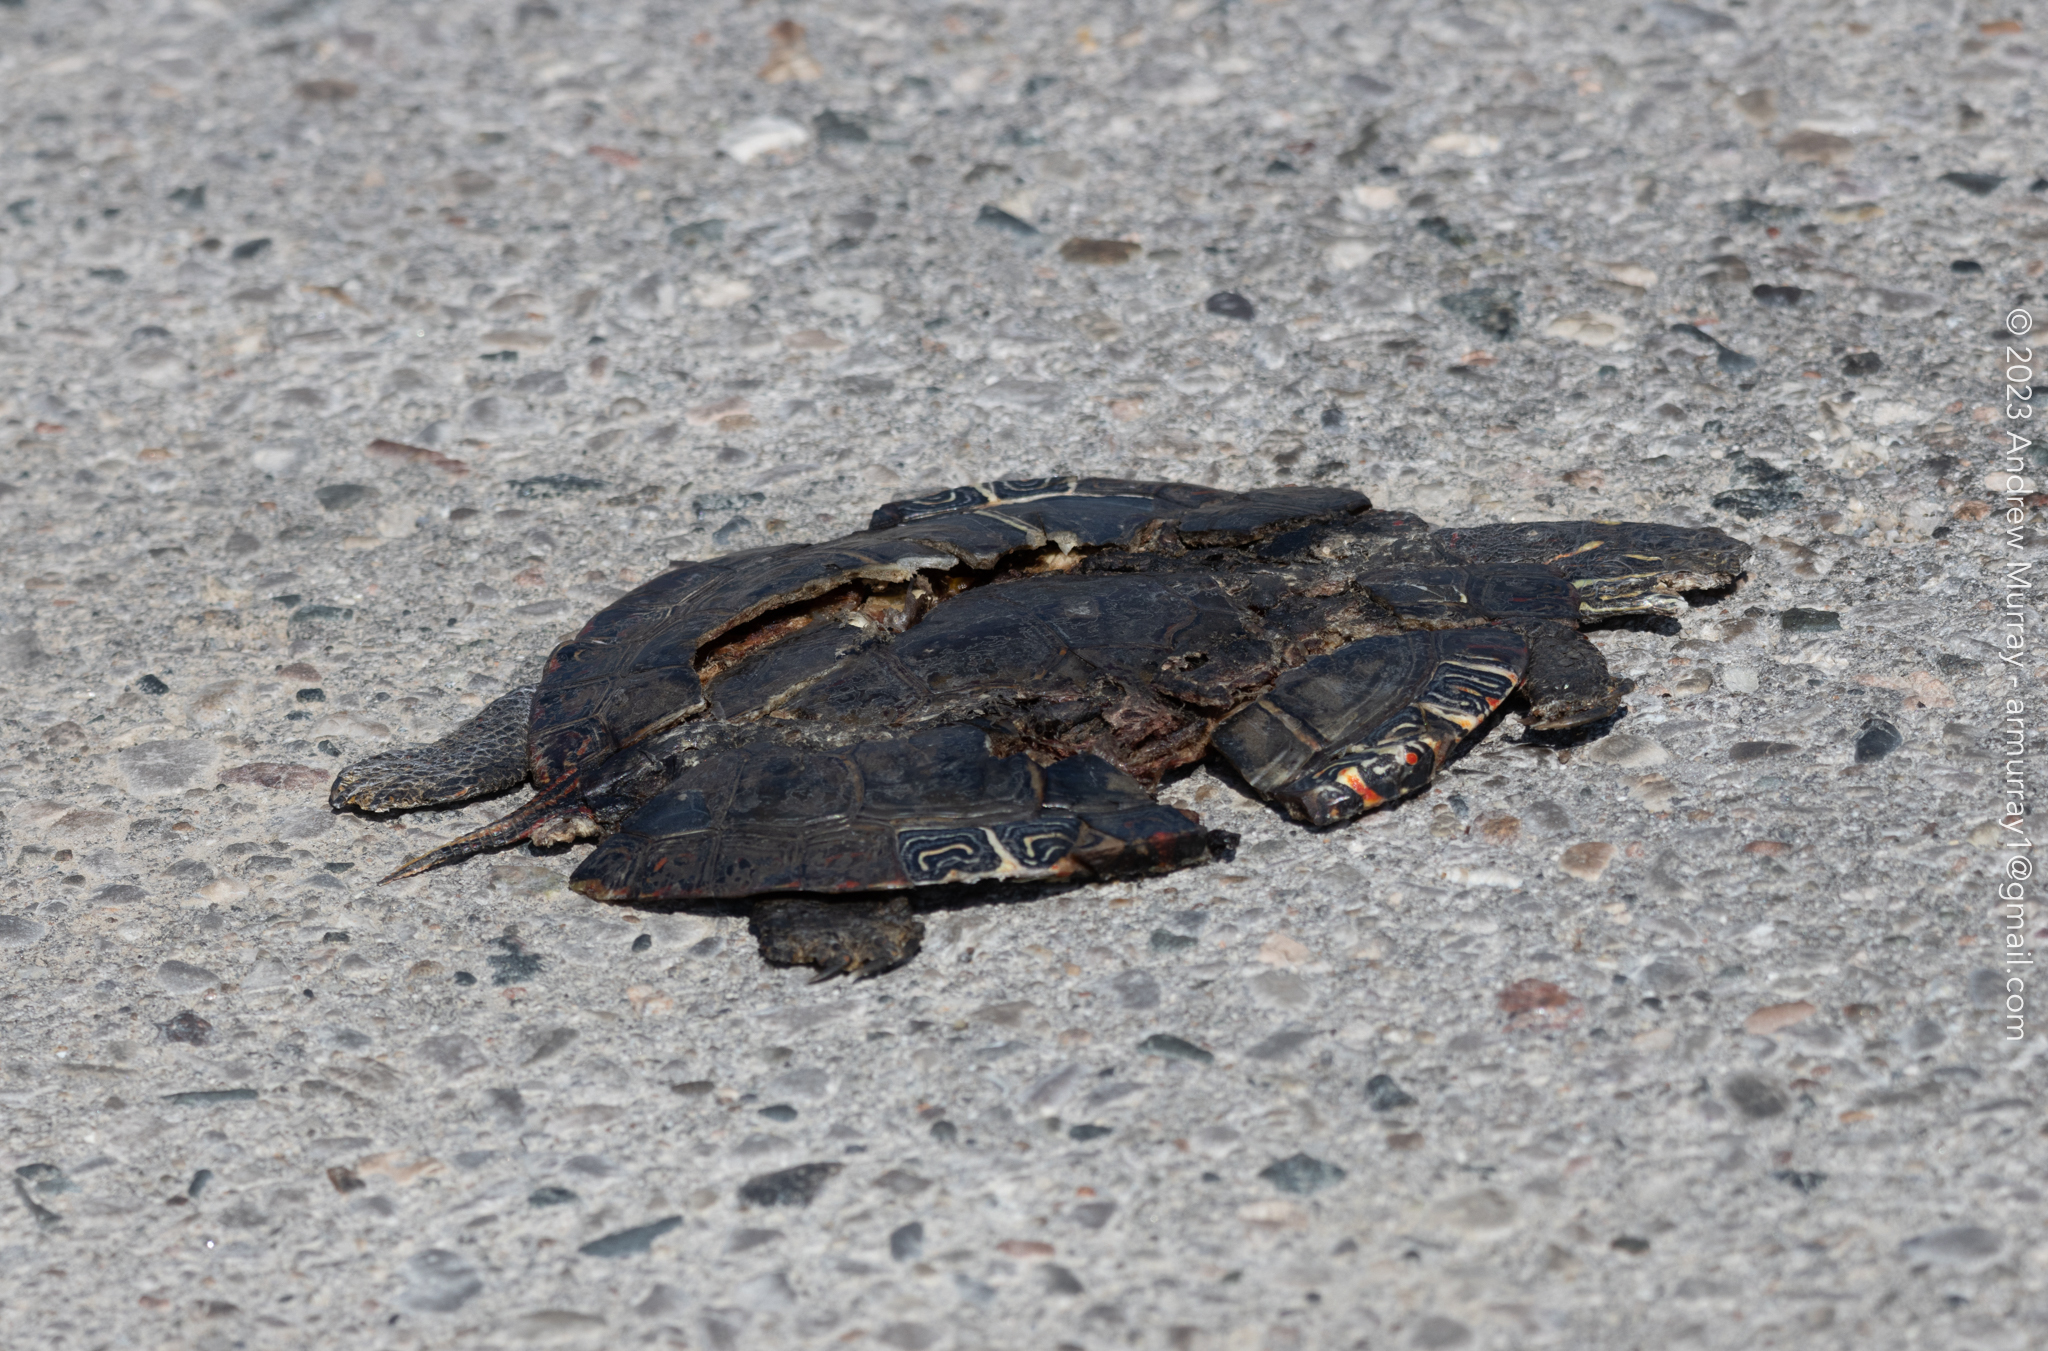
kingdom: Animalia
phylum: Chordata
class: Testudines
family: Emydidae
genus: Chrysemys
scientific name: Chrysemys picta
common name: Painted turtle
